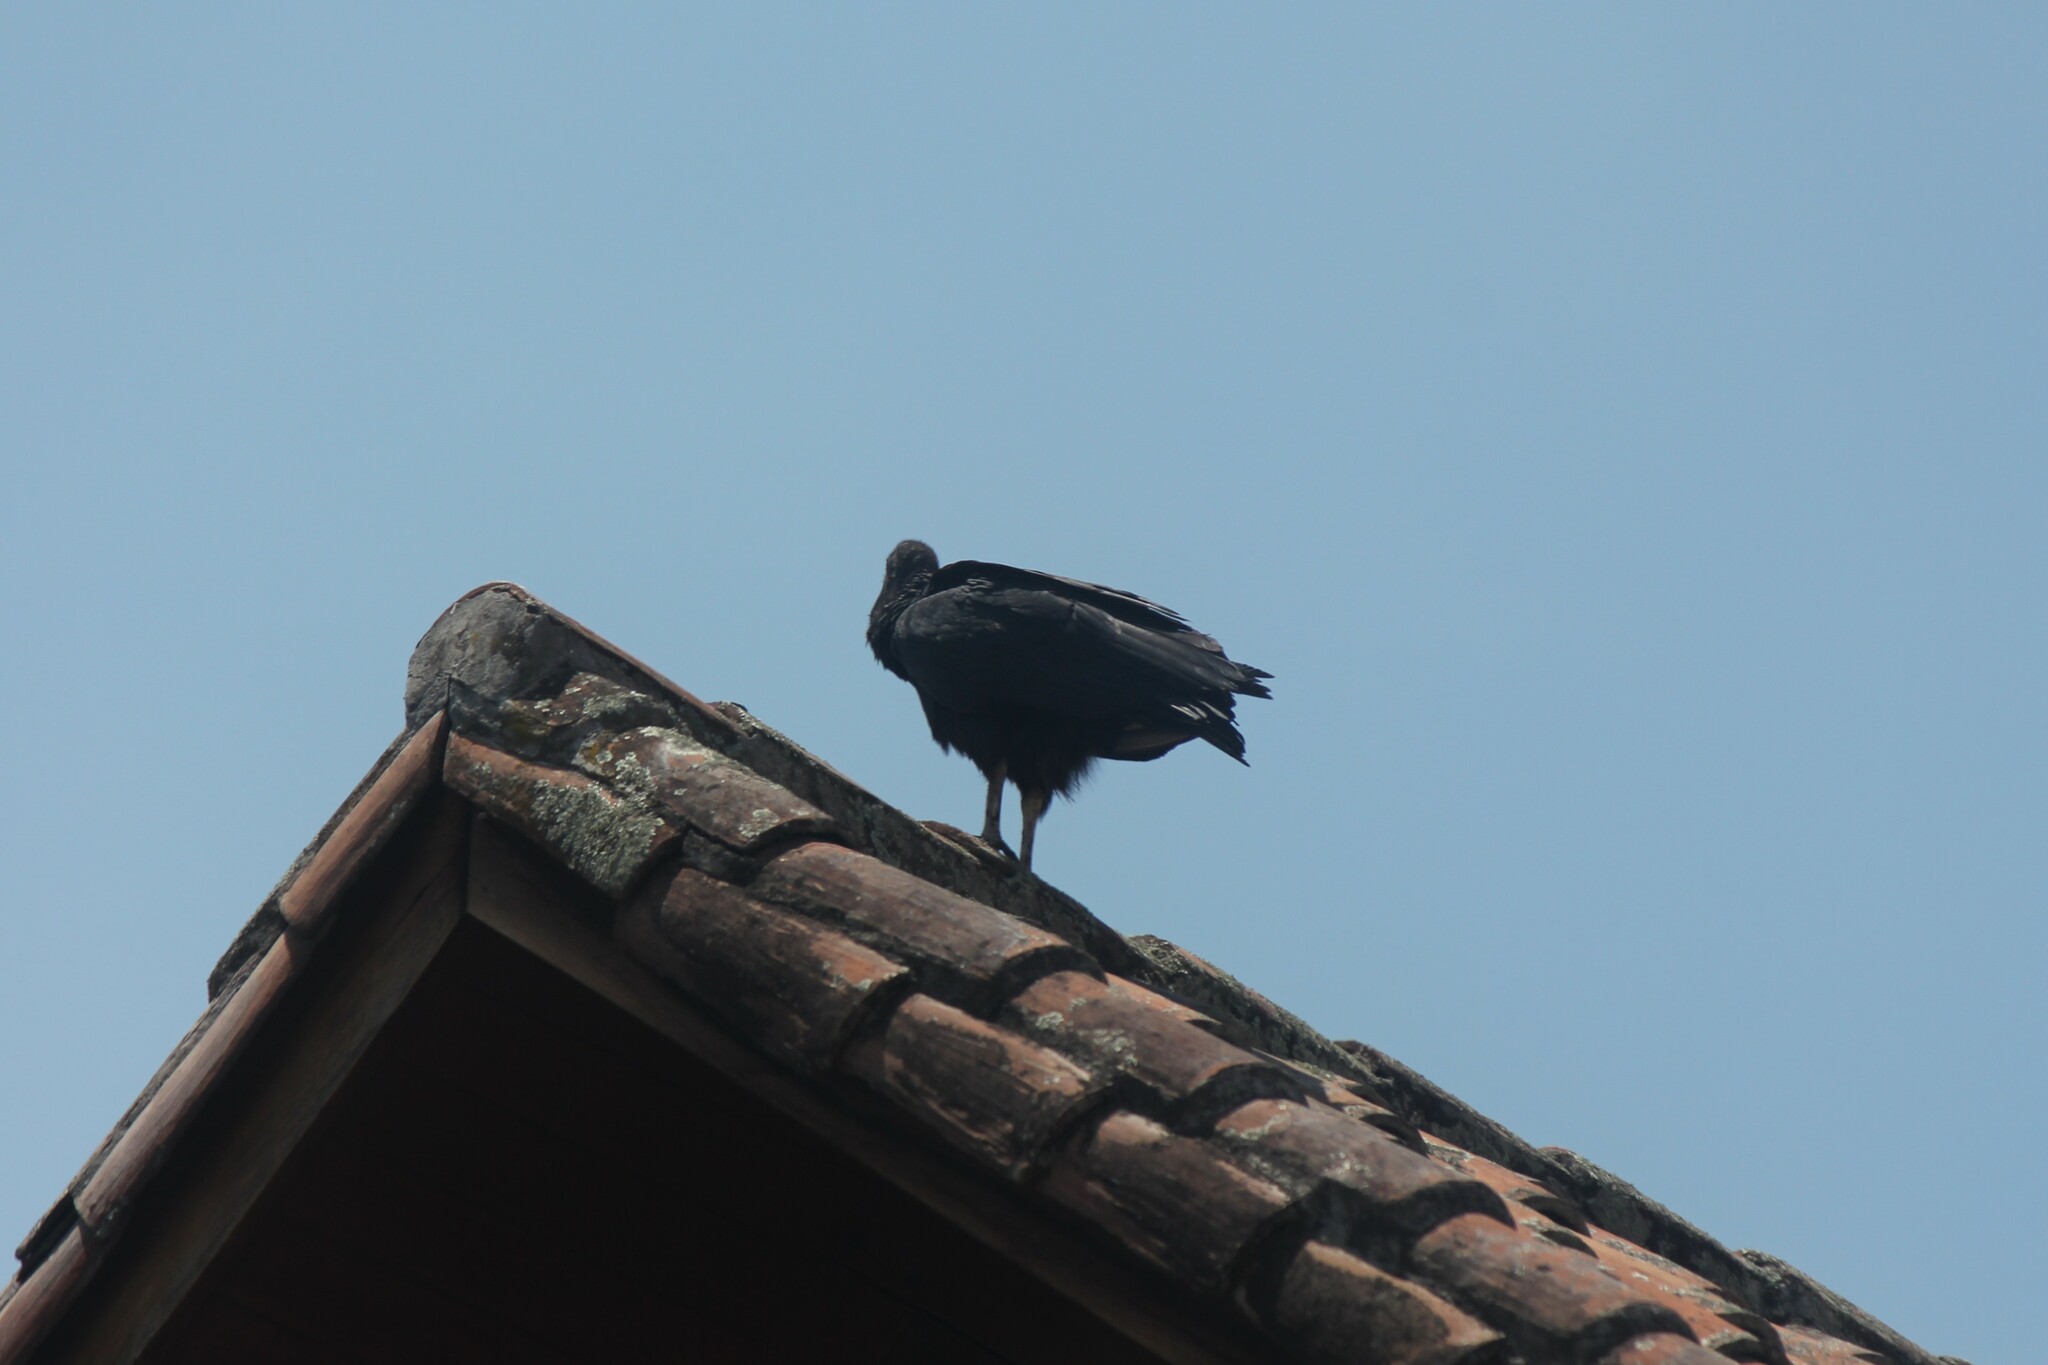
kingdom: Animalia
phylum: Chordata
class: Aves
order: Accipitriformes
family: Cathartidae
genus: Coragyps
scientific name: Coragyps atratus
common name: Black vulture
